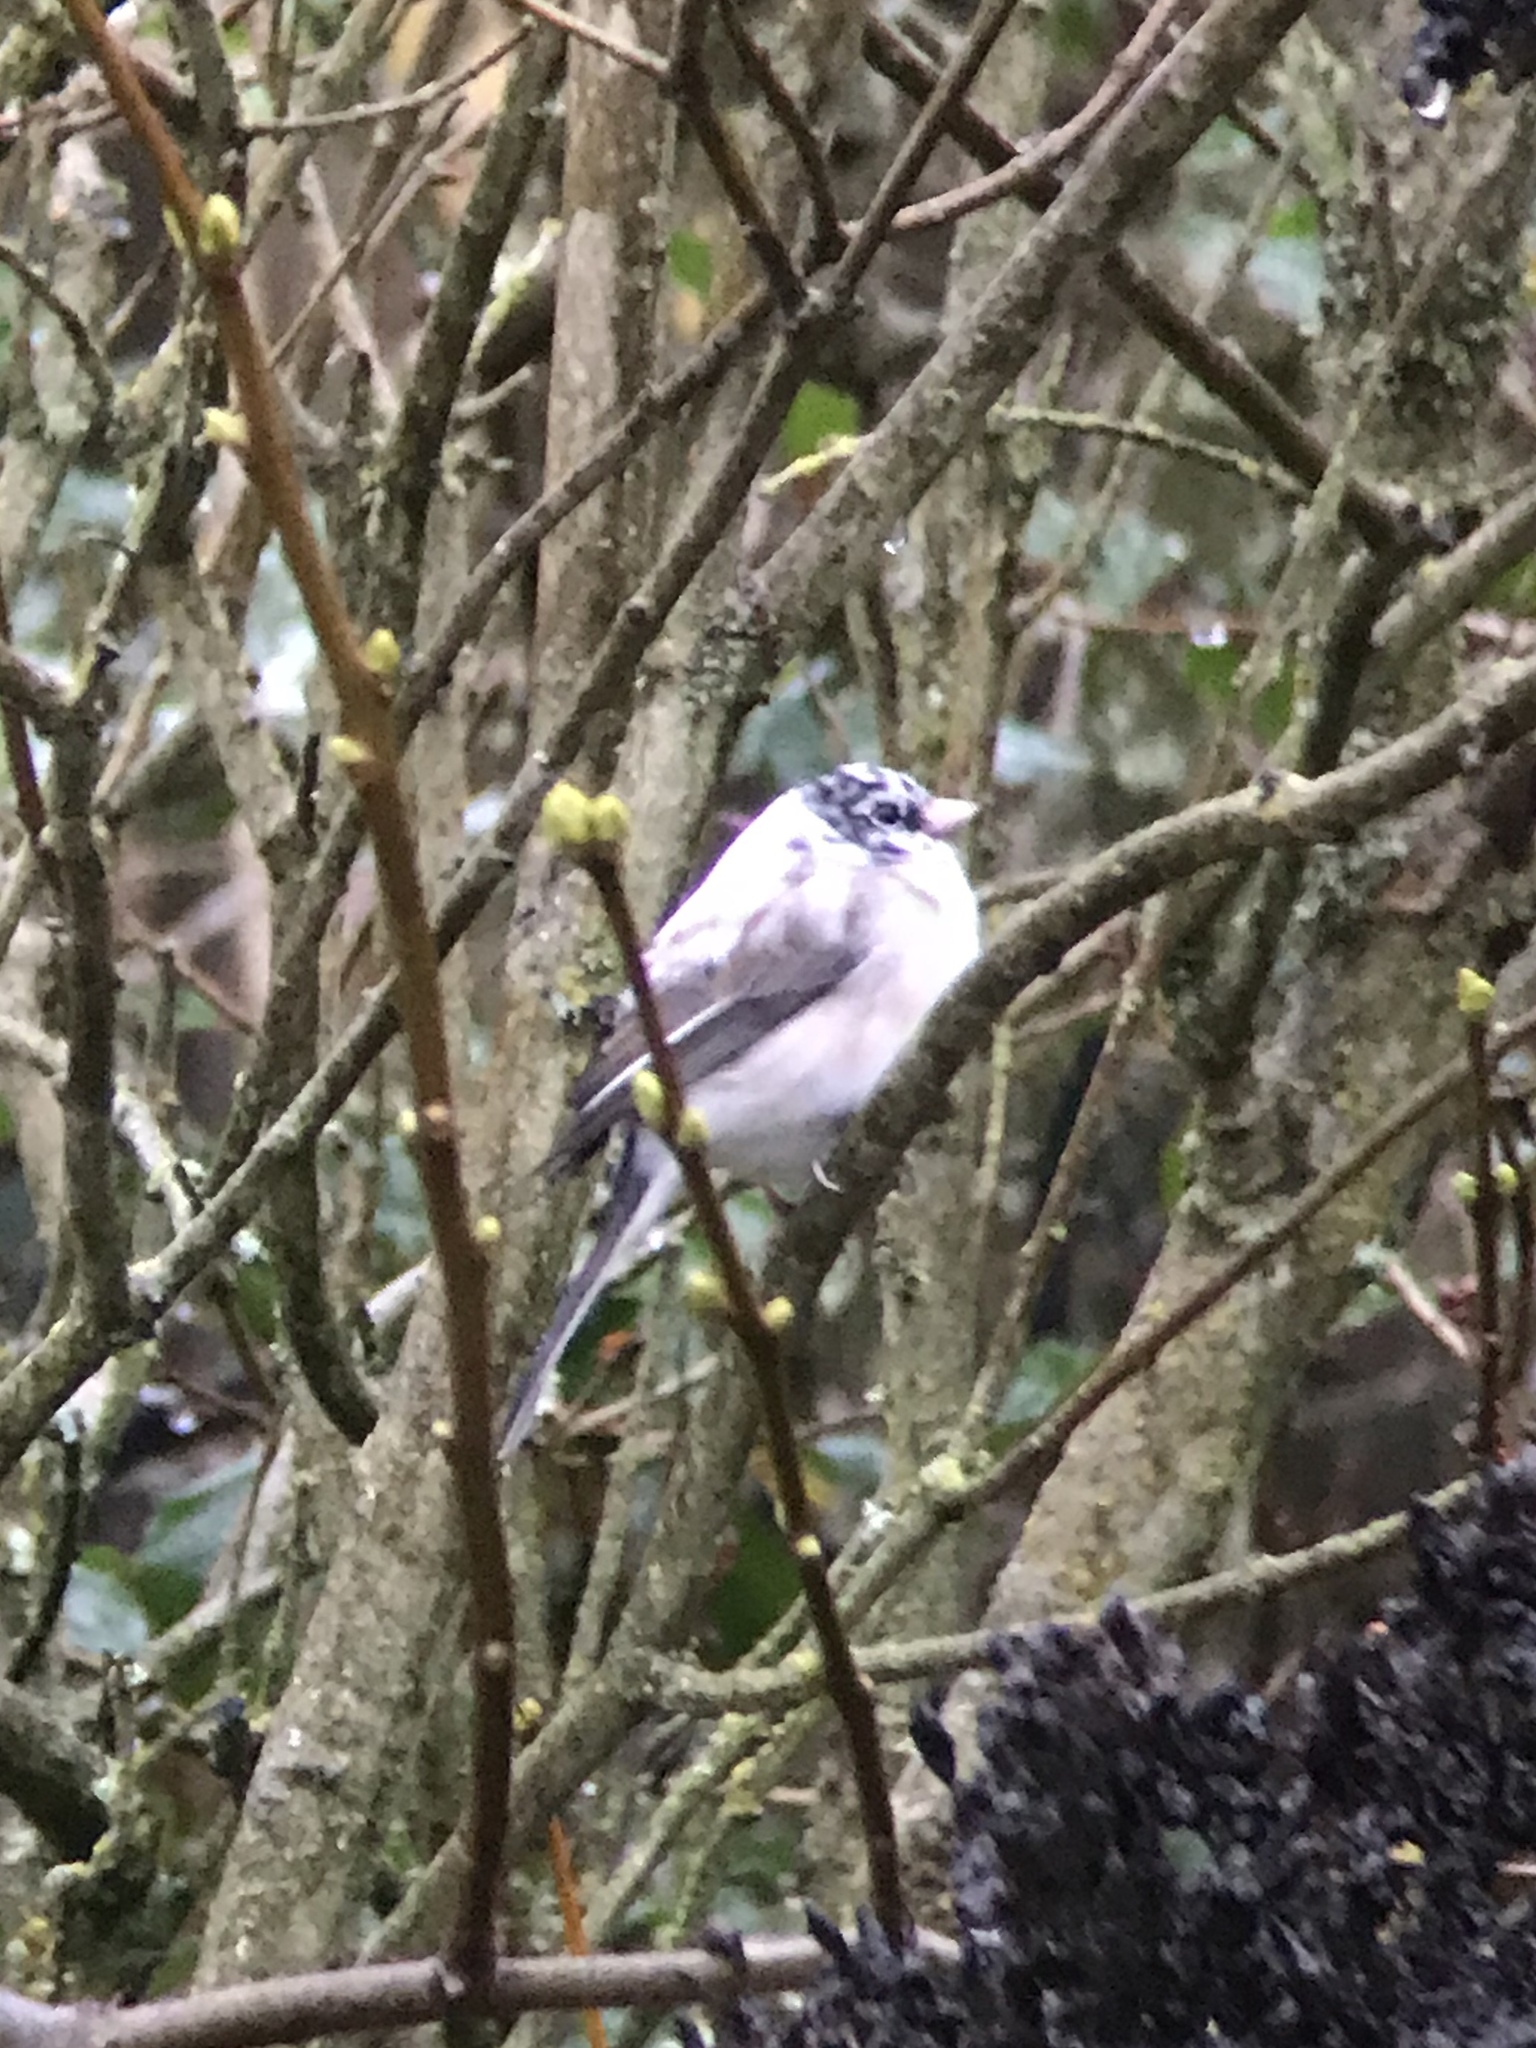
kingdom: Animalia
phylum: Chordata
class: Aves
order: Passeriformes
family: Passerellidae
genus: Junco
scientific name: Junco hyemalis
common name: Dark-eyed junco
